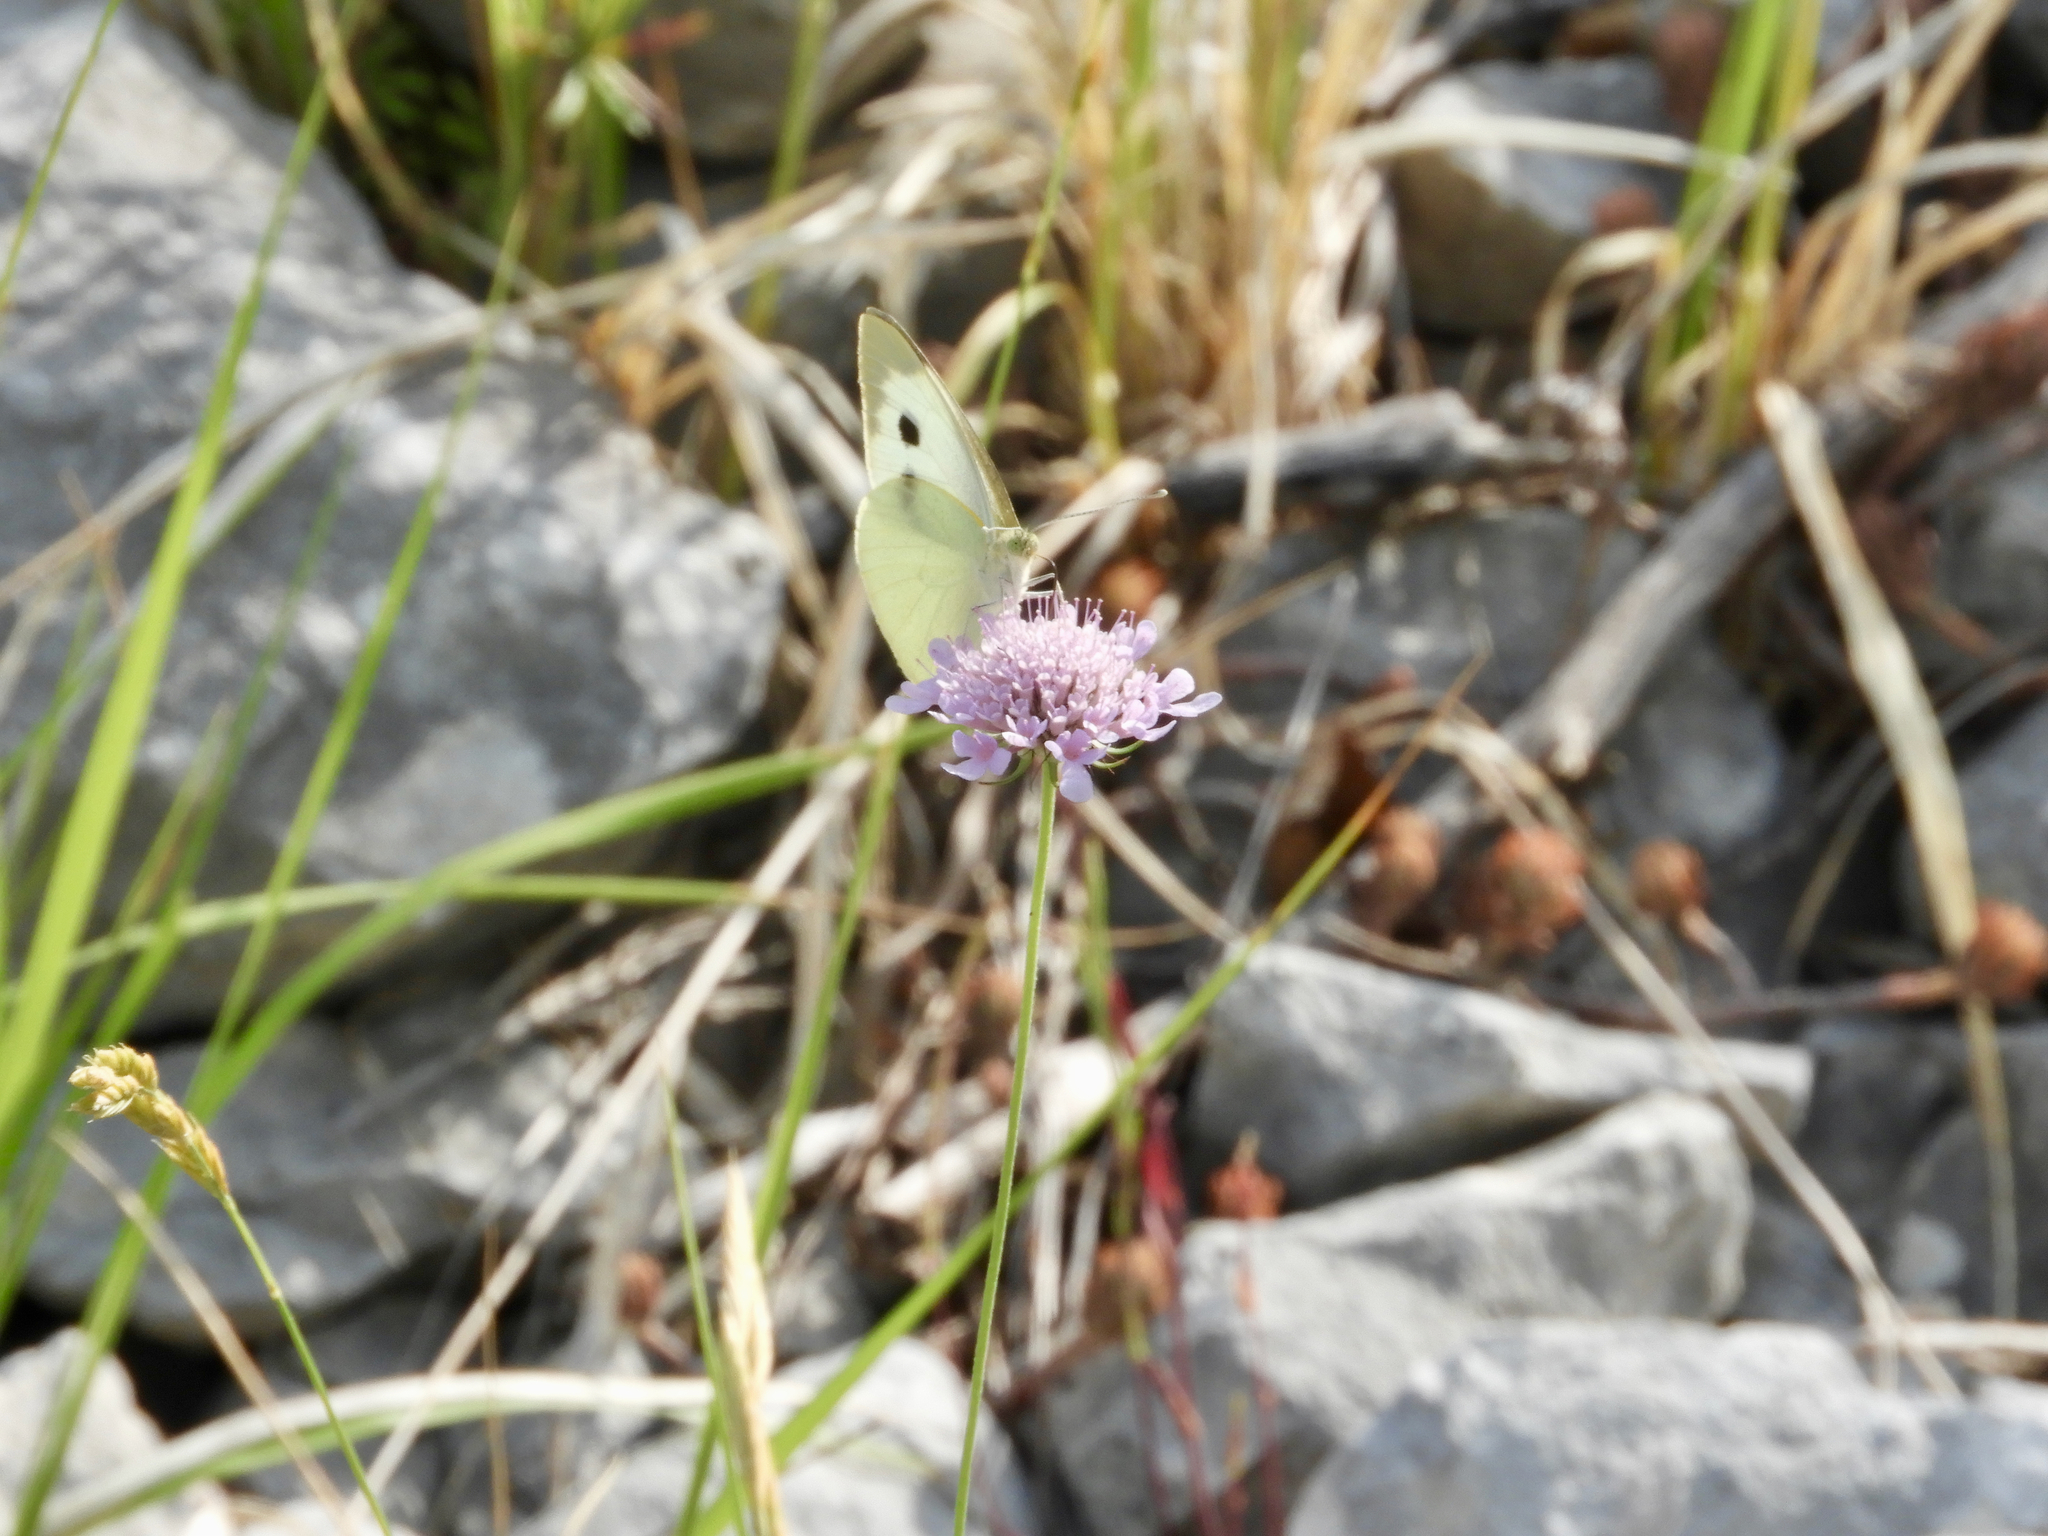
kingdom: Animalia
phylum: Arthropoda
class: Insecta
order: Lepidoptera
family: Pieridae
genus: Pieris
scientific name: Pieris brassicae
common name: Large white
